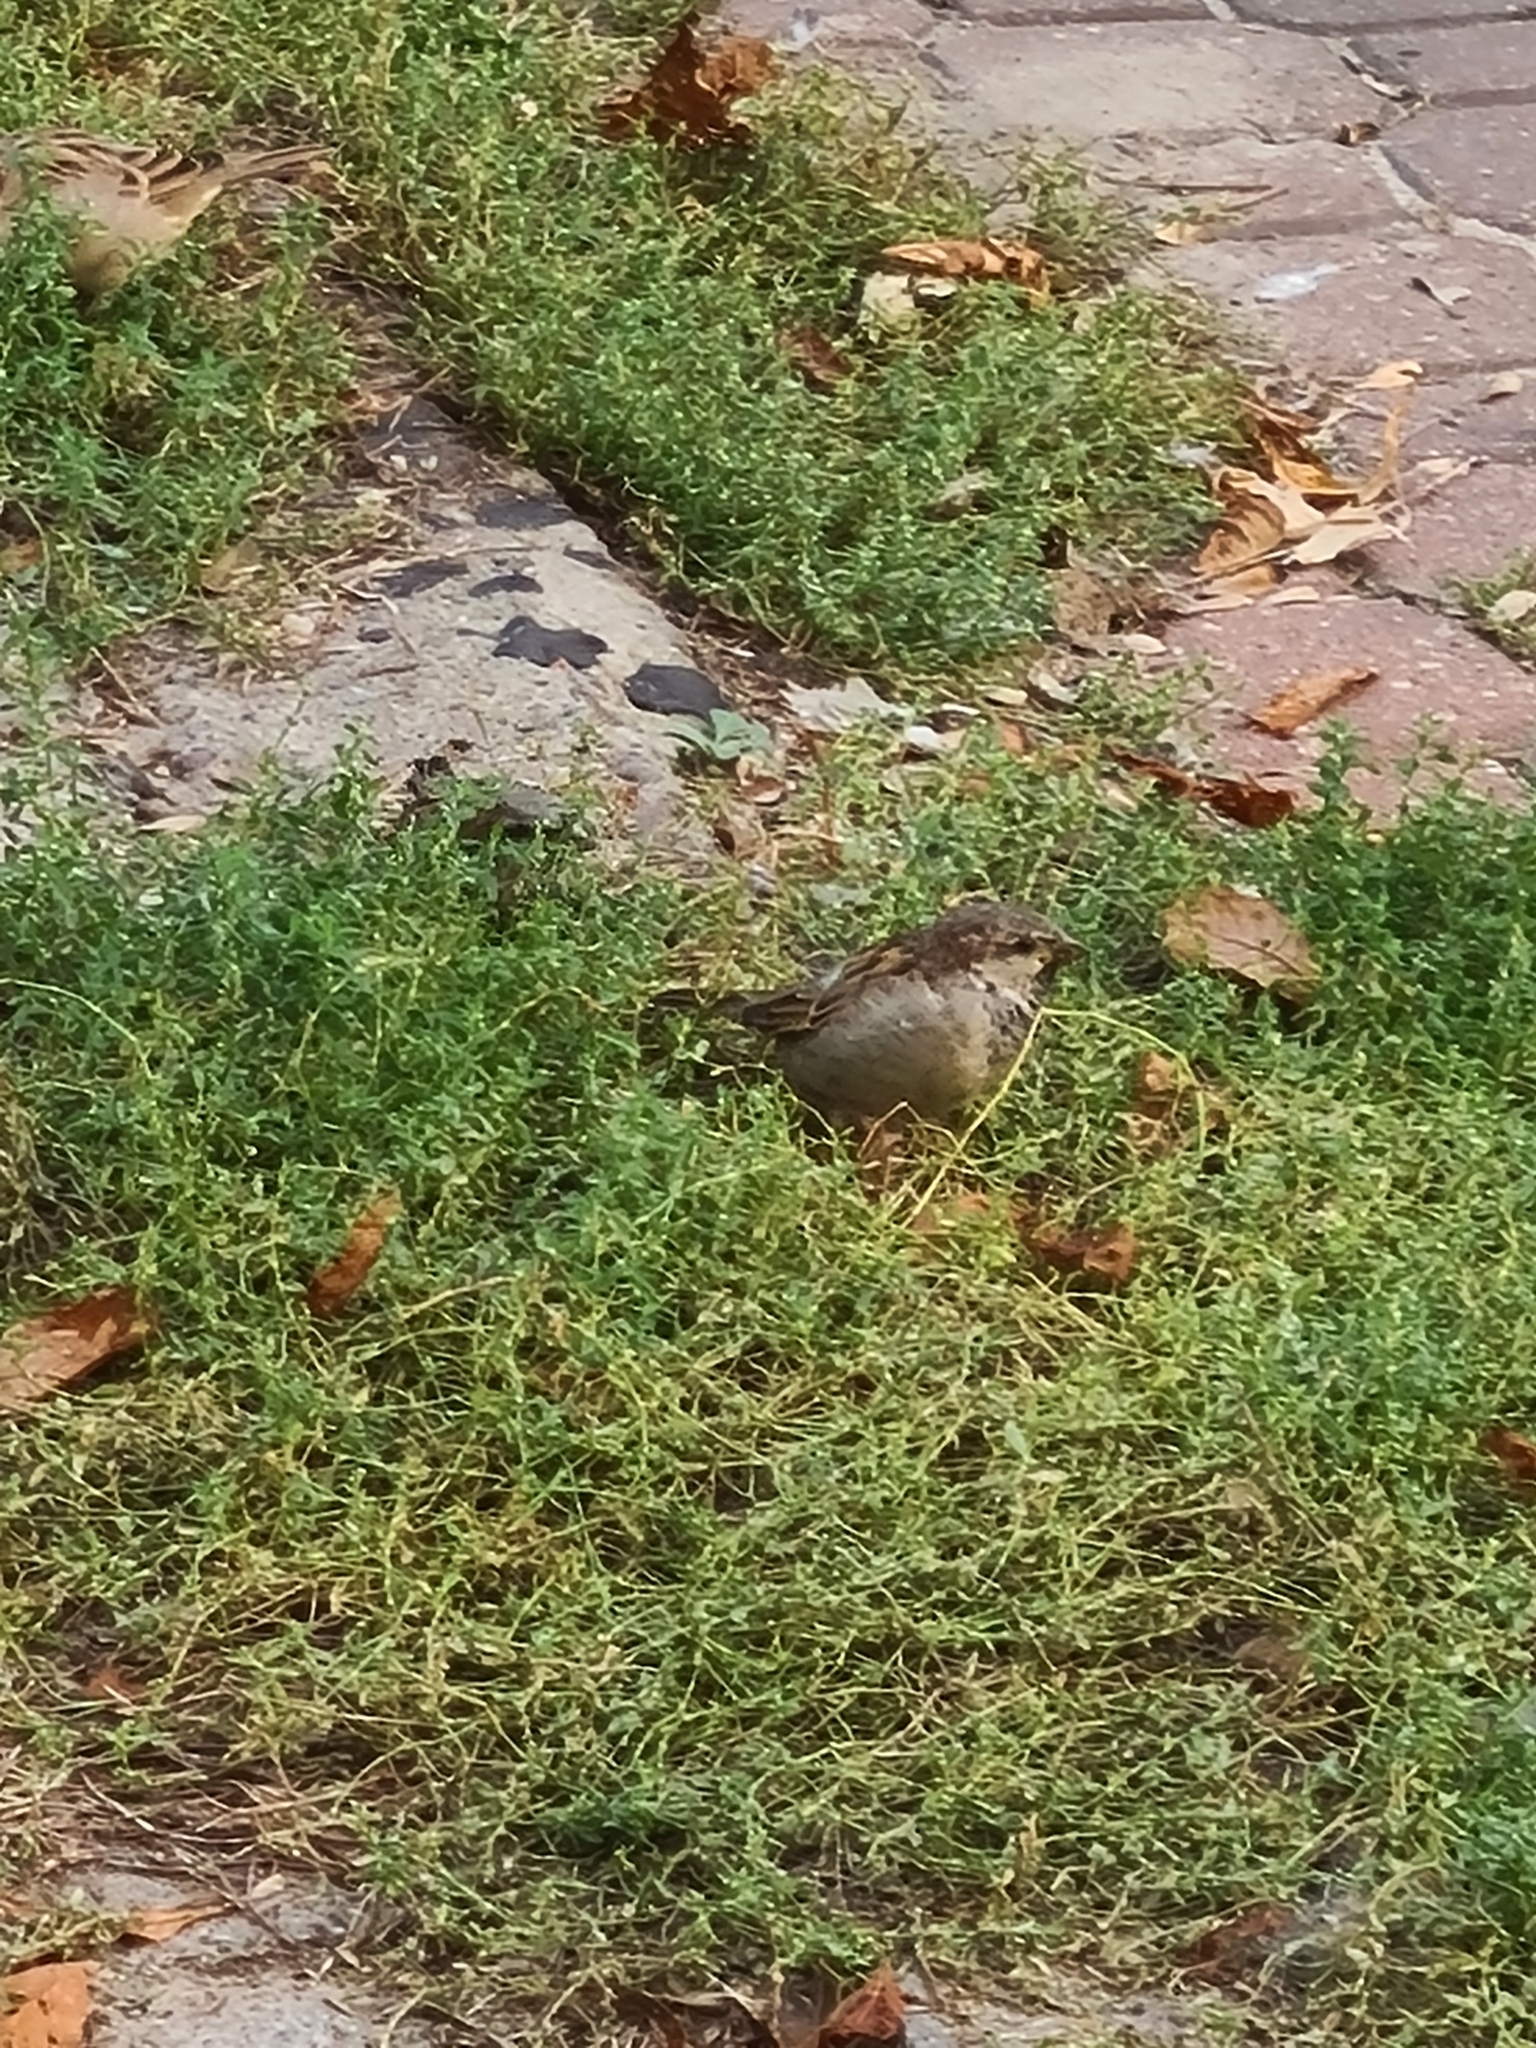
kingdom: Animalia
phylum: Chordata
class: Aves
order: Passeriformes
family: Passeridae
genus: Passer
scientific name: Passer domesticus
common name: House sparrow
